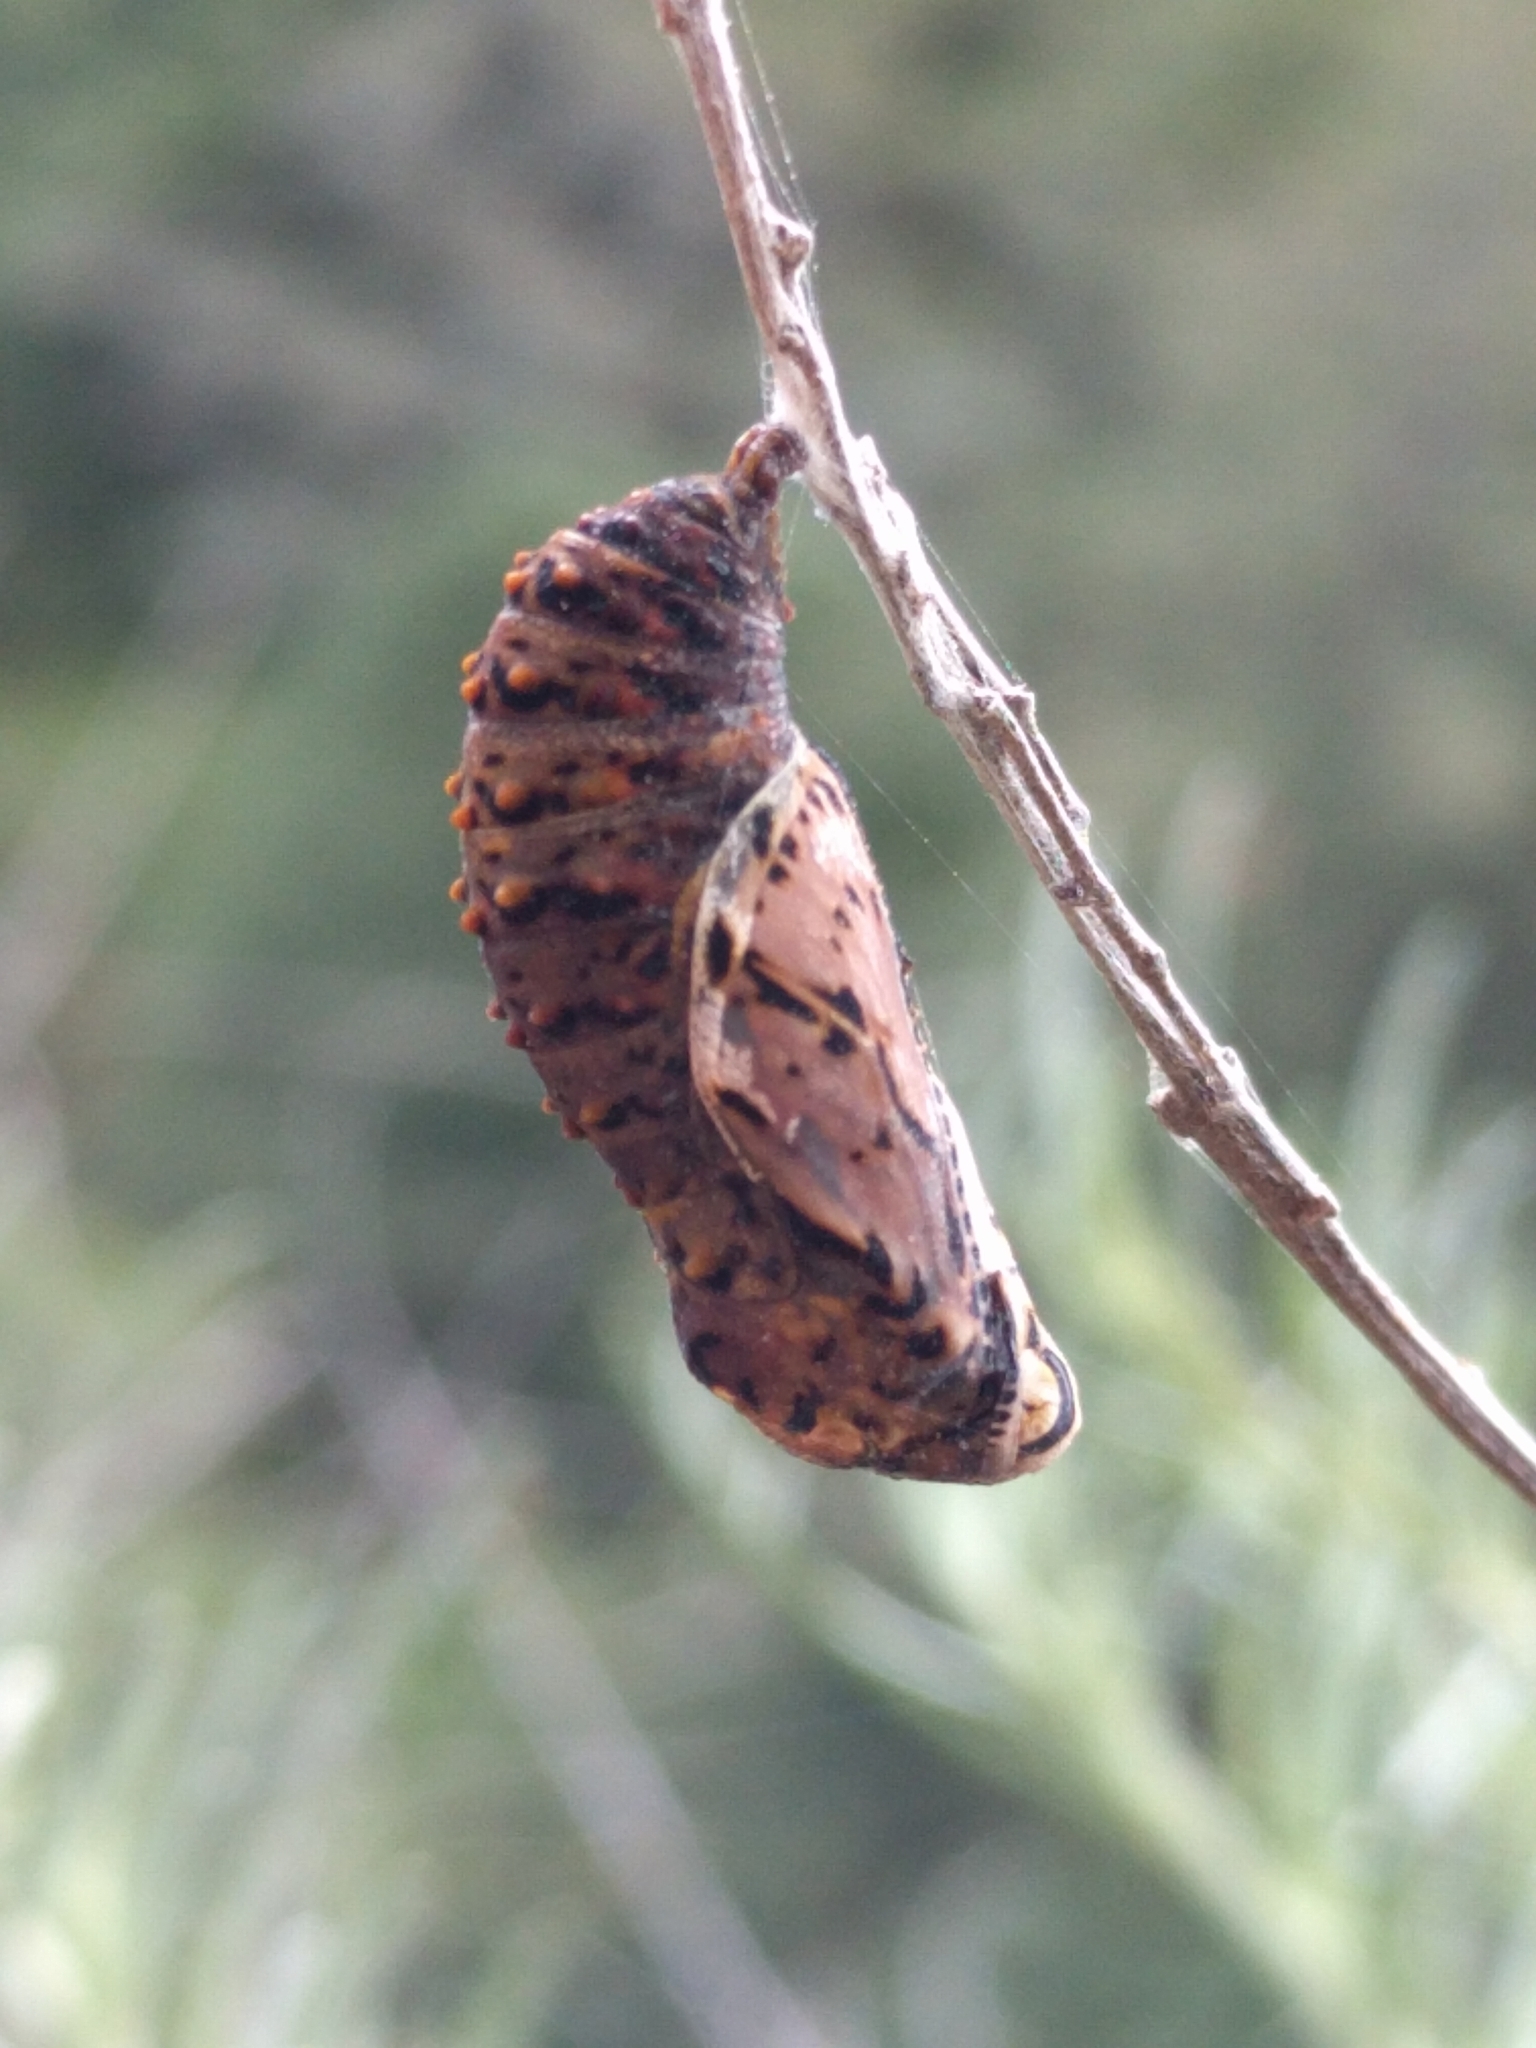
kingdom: Animalia
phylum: Arthropoda
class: Insecta
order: Lepidoptera
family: Nymphalidae
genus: Occidryas
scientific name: Occidryas chalcedona
